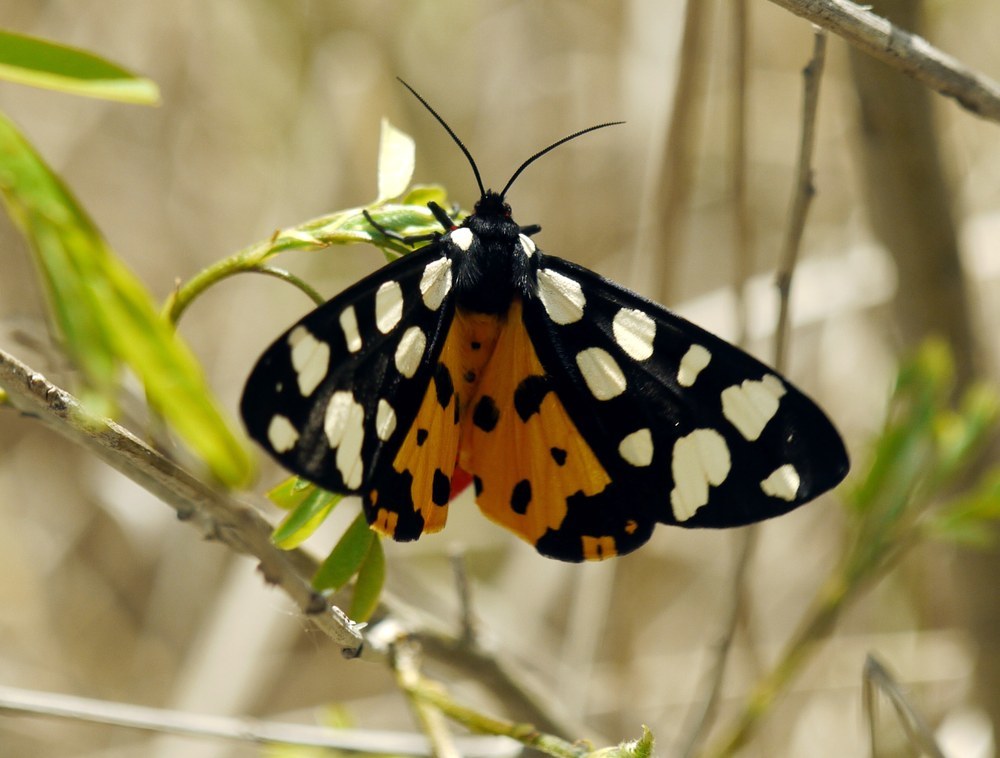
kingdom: Animalia
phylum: Arthropoda
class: Insecta
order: Lepidoptera
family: Erebidae
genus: Epicallia
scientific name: Epicallia villica
